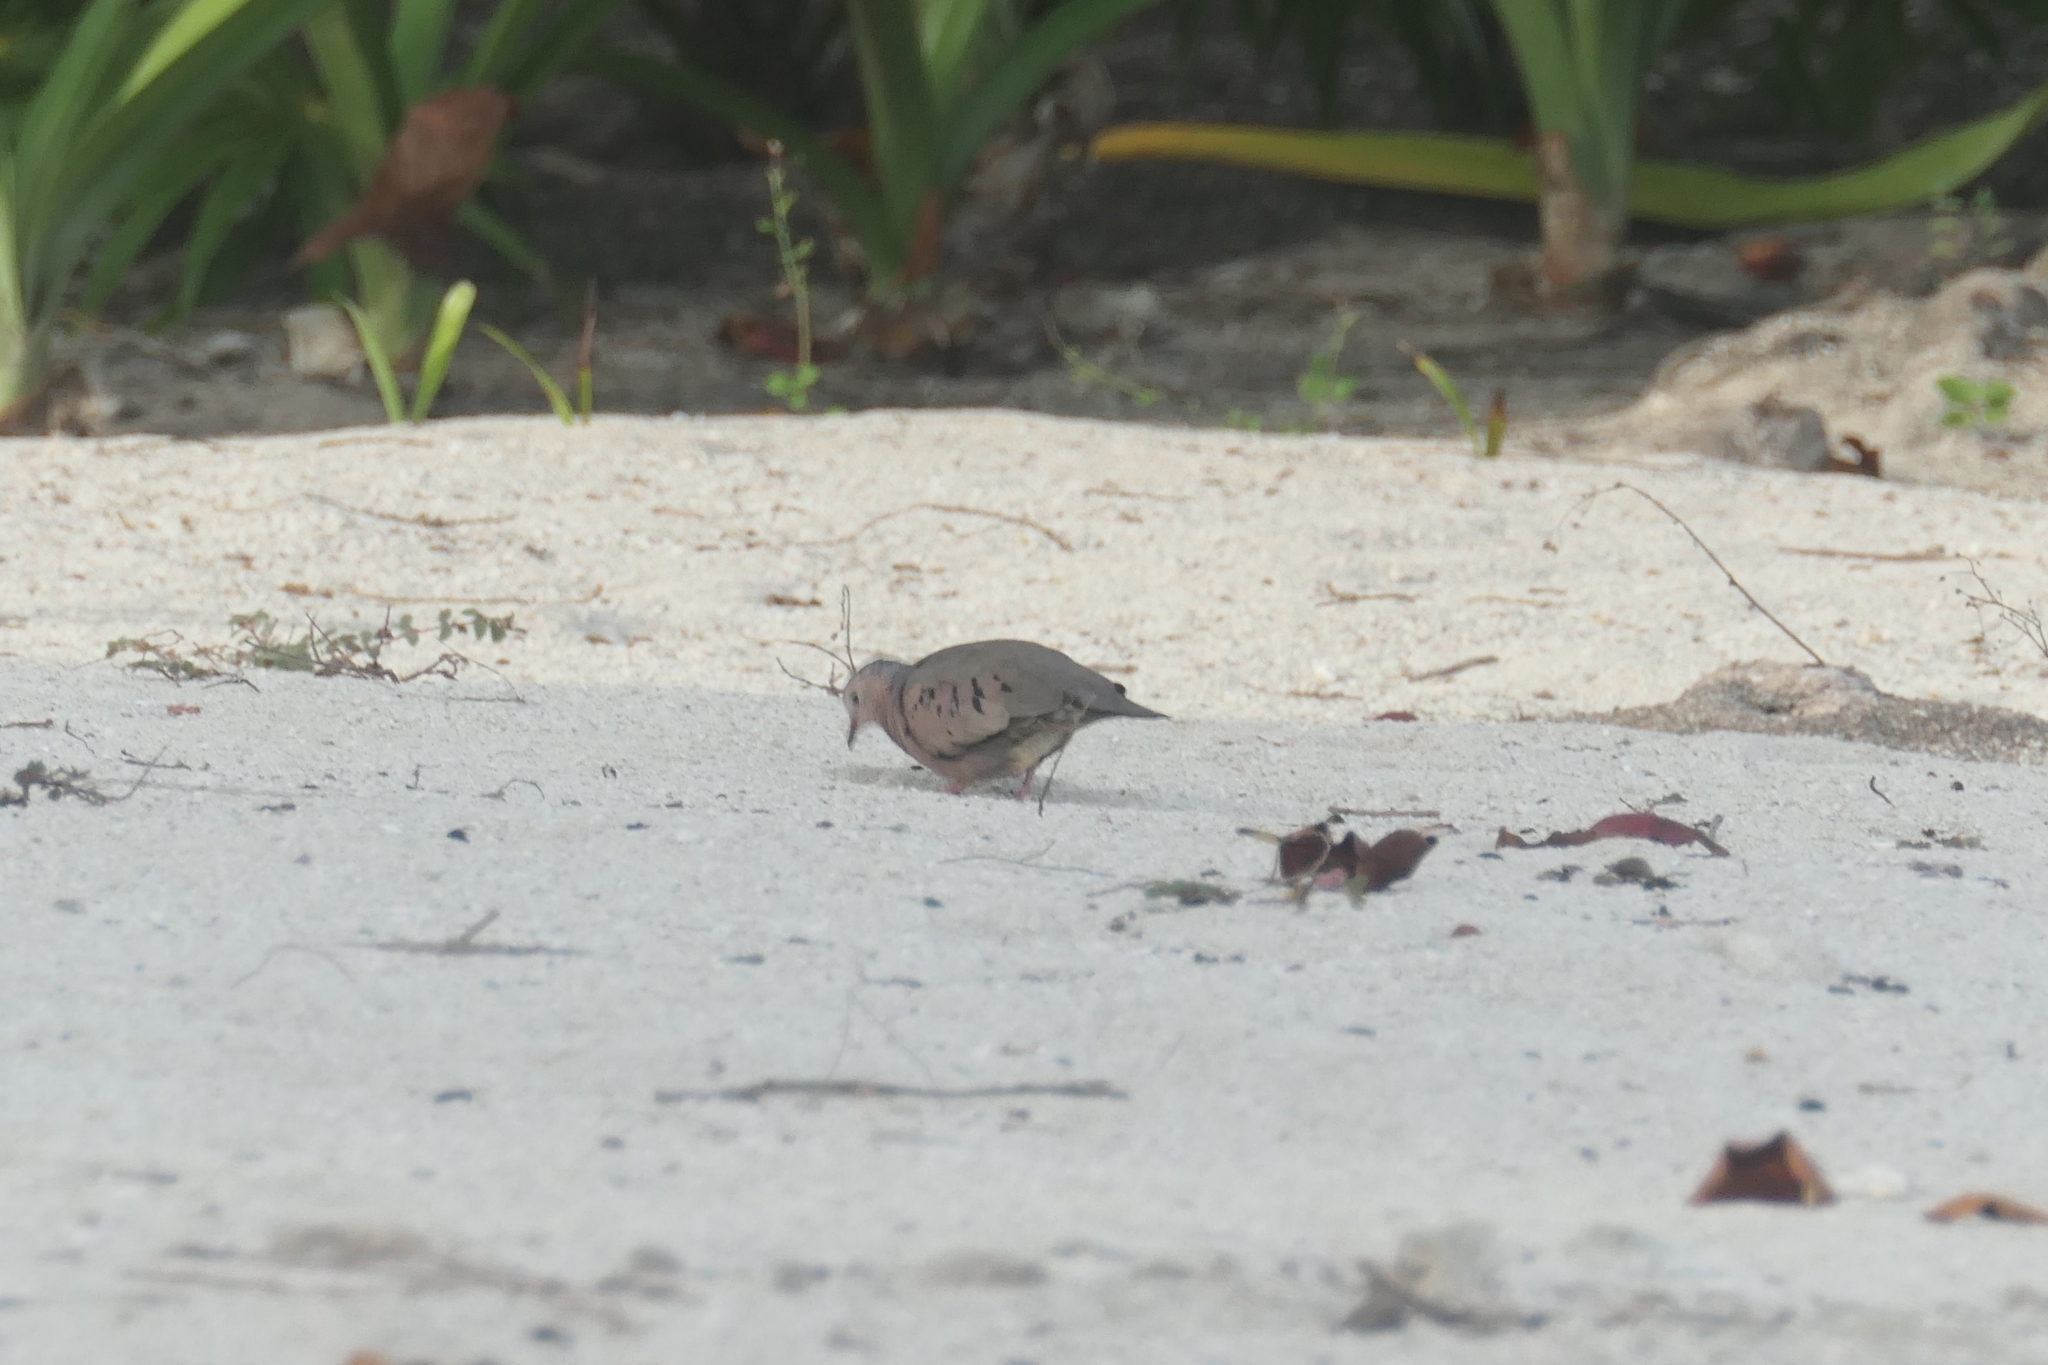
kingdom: Animalia
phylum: Chordata
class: Aves
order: Columbiformes
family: Columbidae
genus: Columbina
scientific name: Columbina passerina
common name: Common ground-dove
